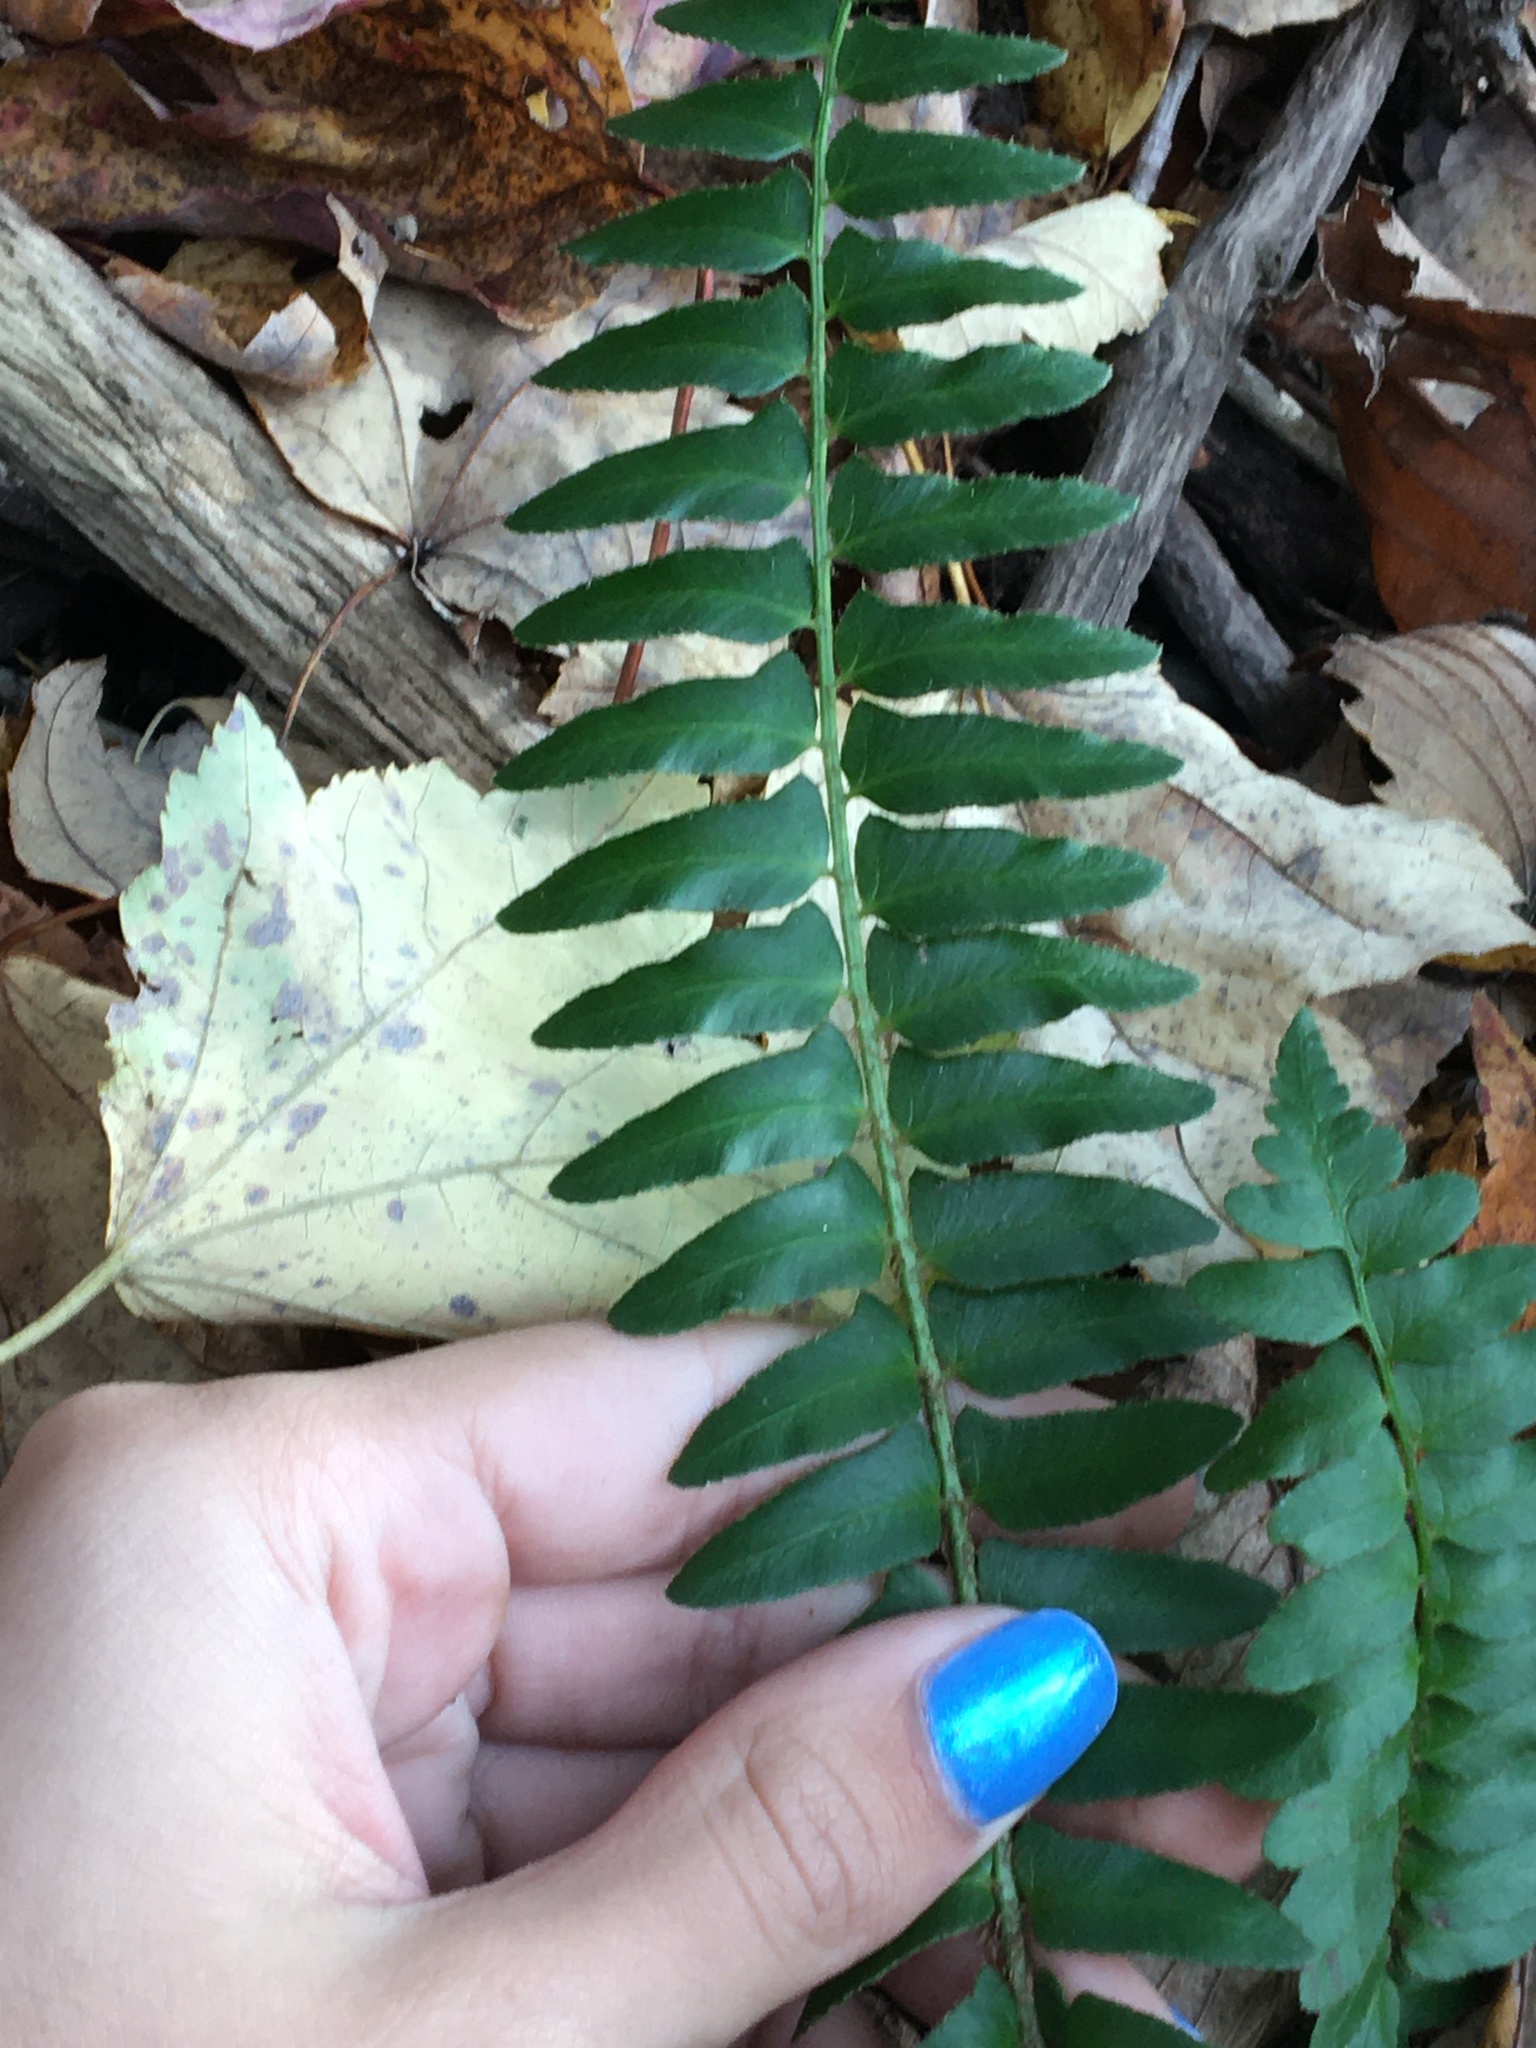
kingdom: Plantae
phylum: Tracheophyta
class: Polypodiopsida
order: Polypodiales
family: Dryopteridaceae
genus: Polystichum
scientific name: Polystichum acrostichoides
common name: Christmas fern
